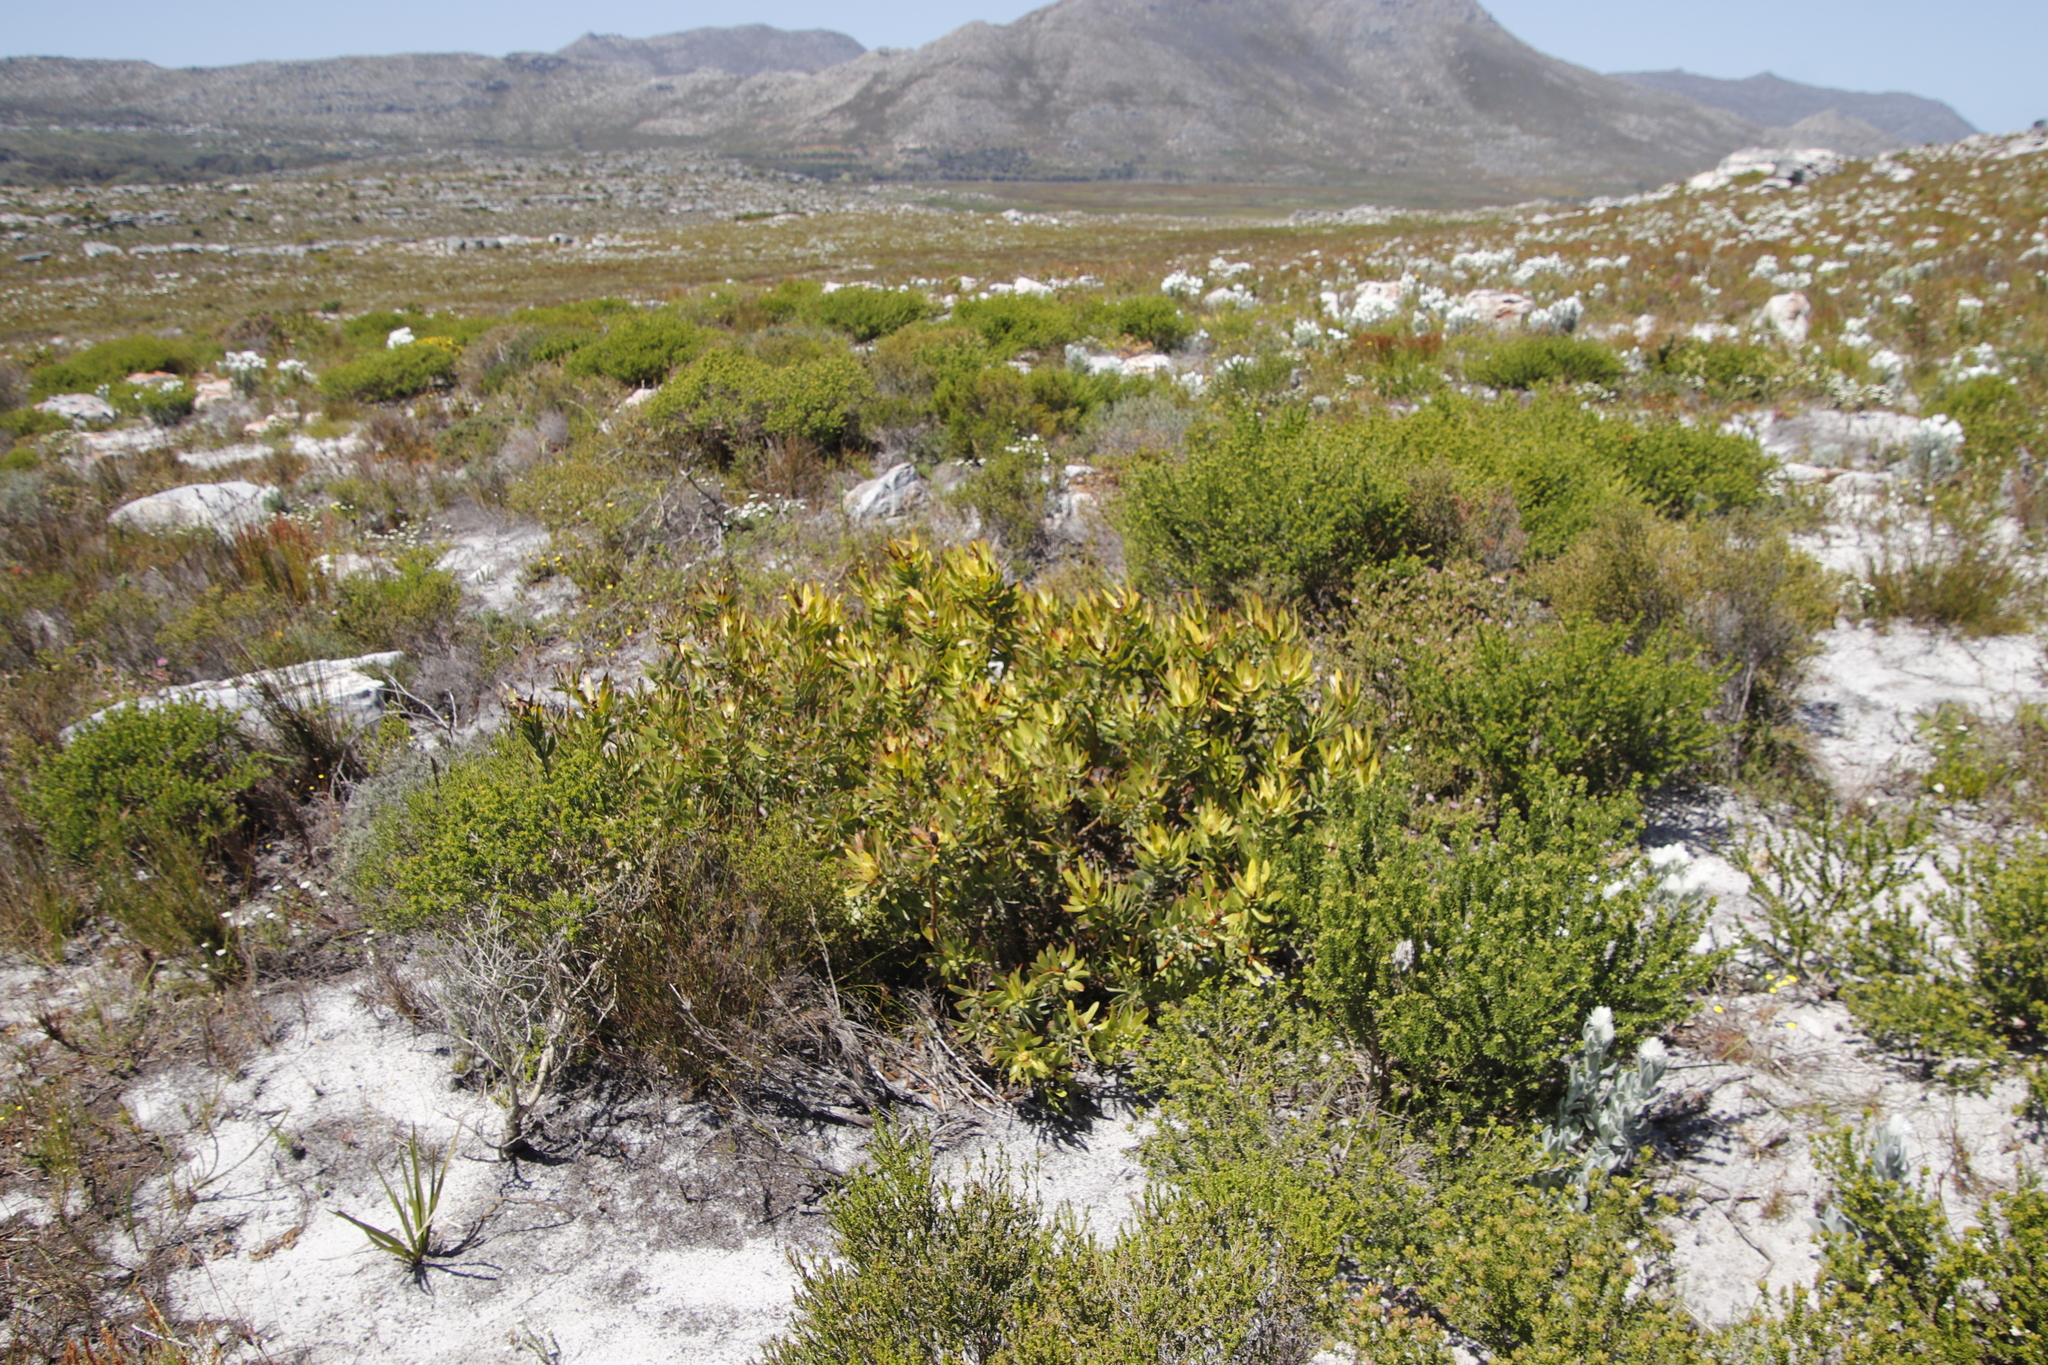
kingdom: Plantae
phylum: Tracheophyta
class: Magnoliopsida
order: Proteales
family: Proteaceae
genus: Leucadendron
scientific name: Leucadendron salignum
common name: Common sunshine conebush
